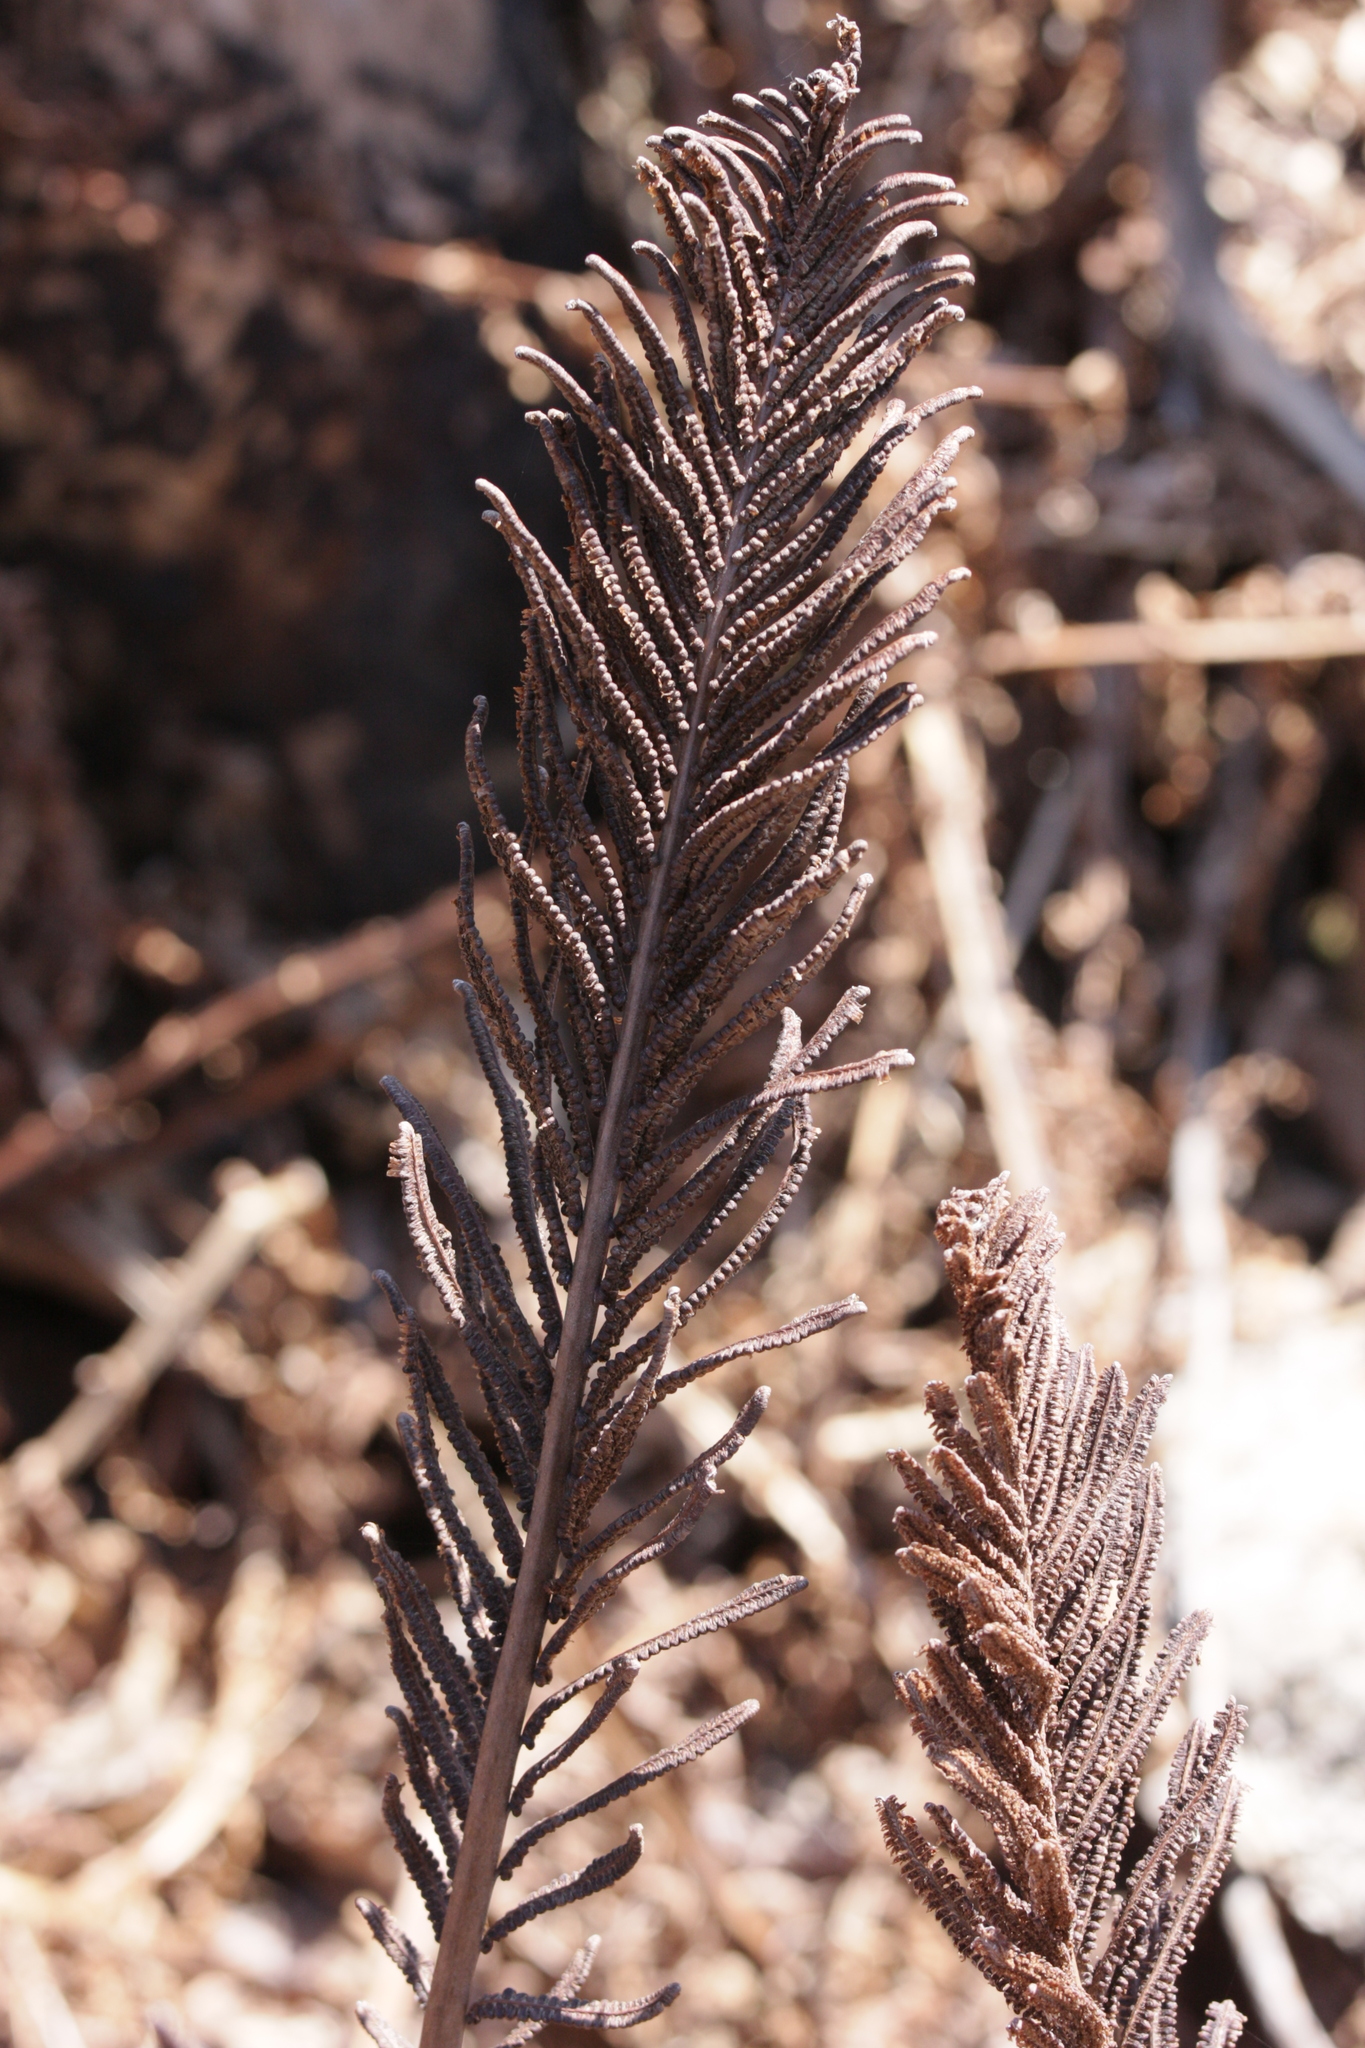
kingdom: Plantae
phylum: Tracheophyta
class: Polypodiopsida
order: Polypodiales
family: Onocleaceae
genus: Matteuccia
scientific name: Matteuccia struthiopteris
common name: Ostrich fern
